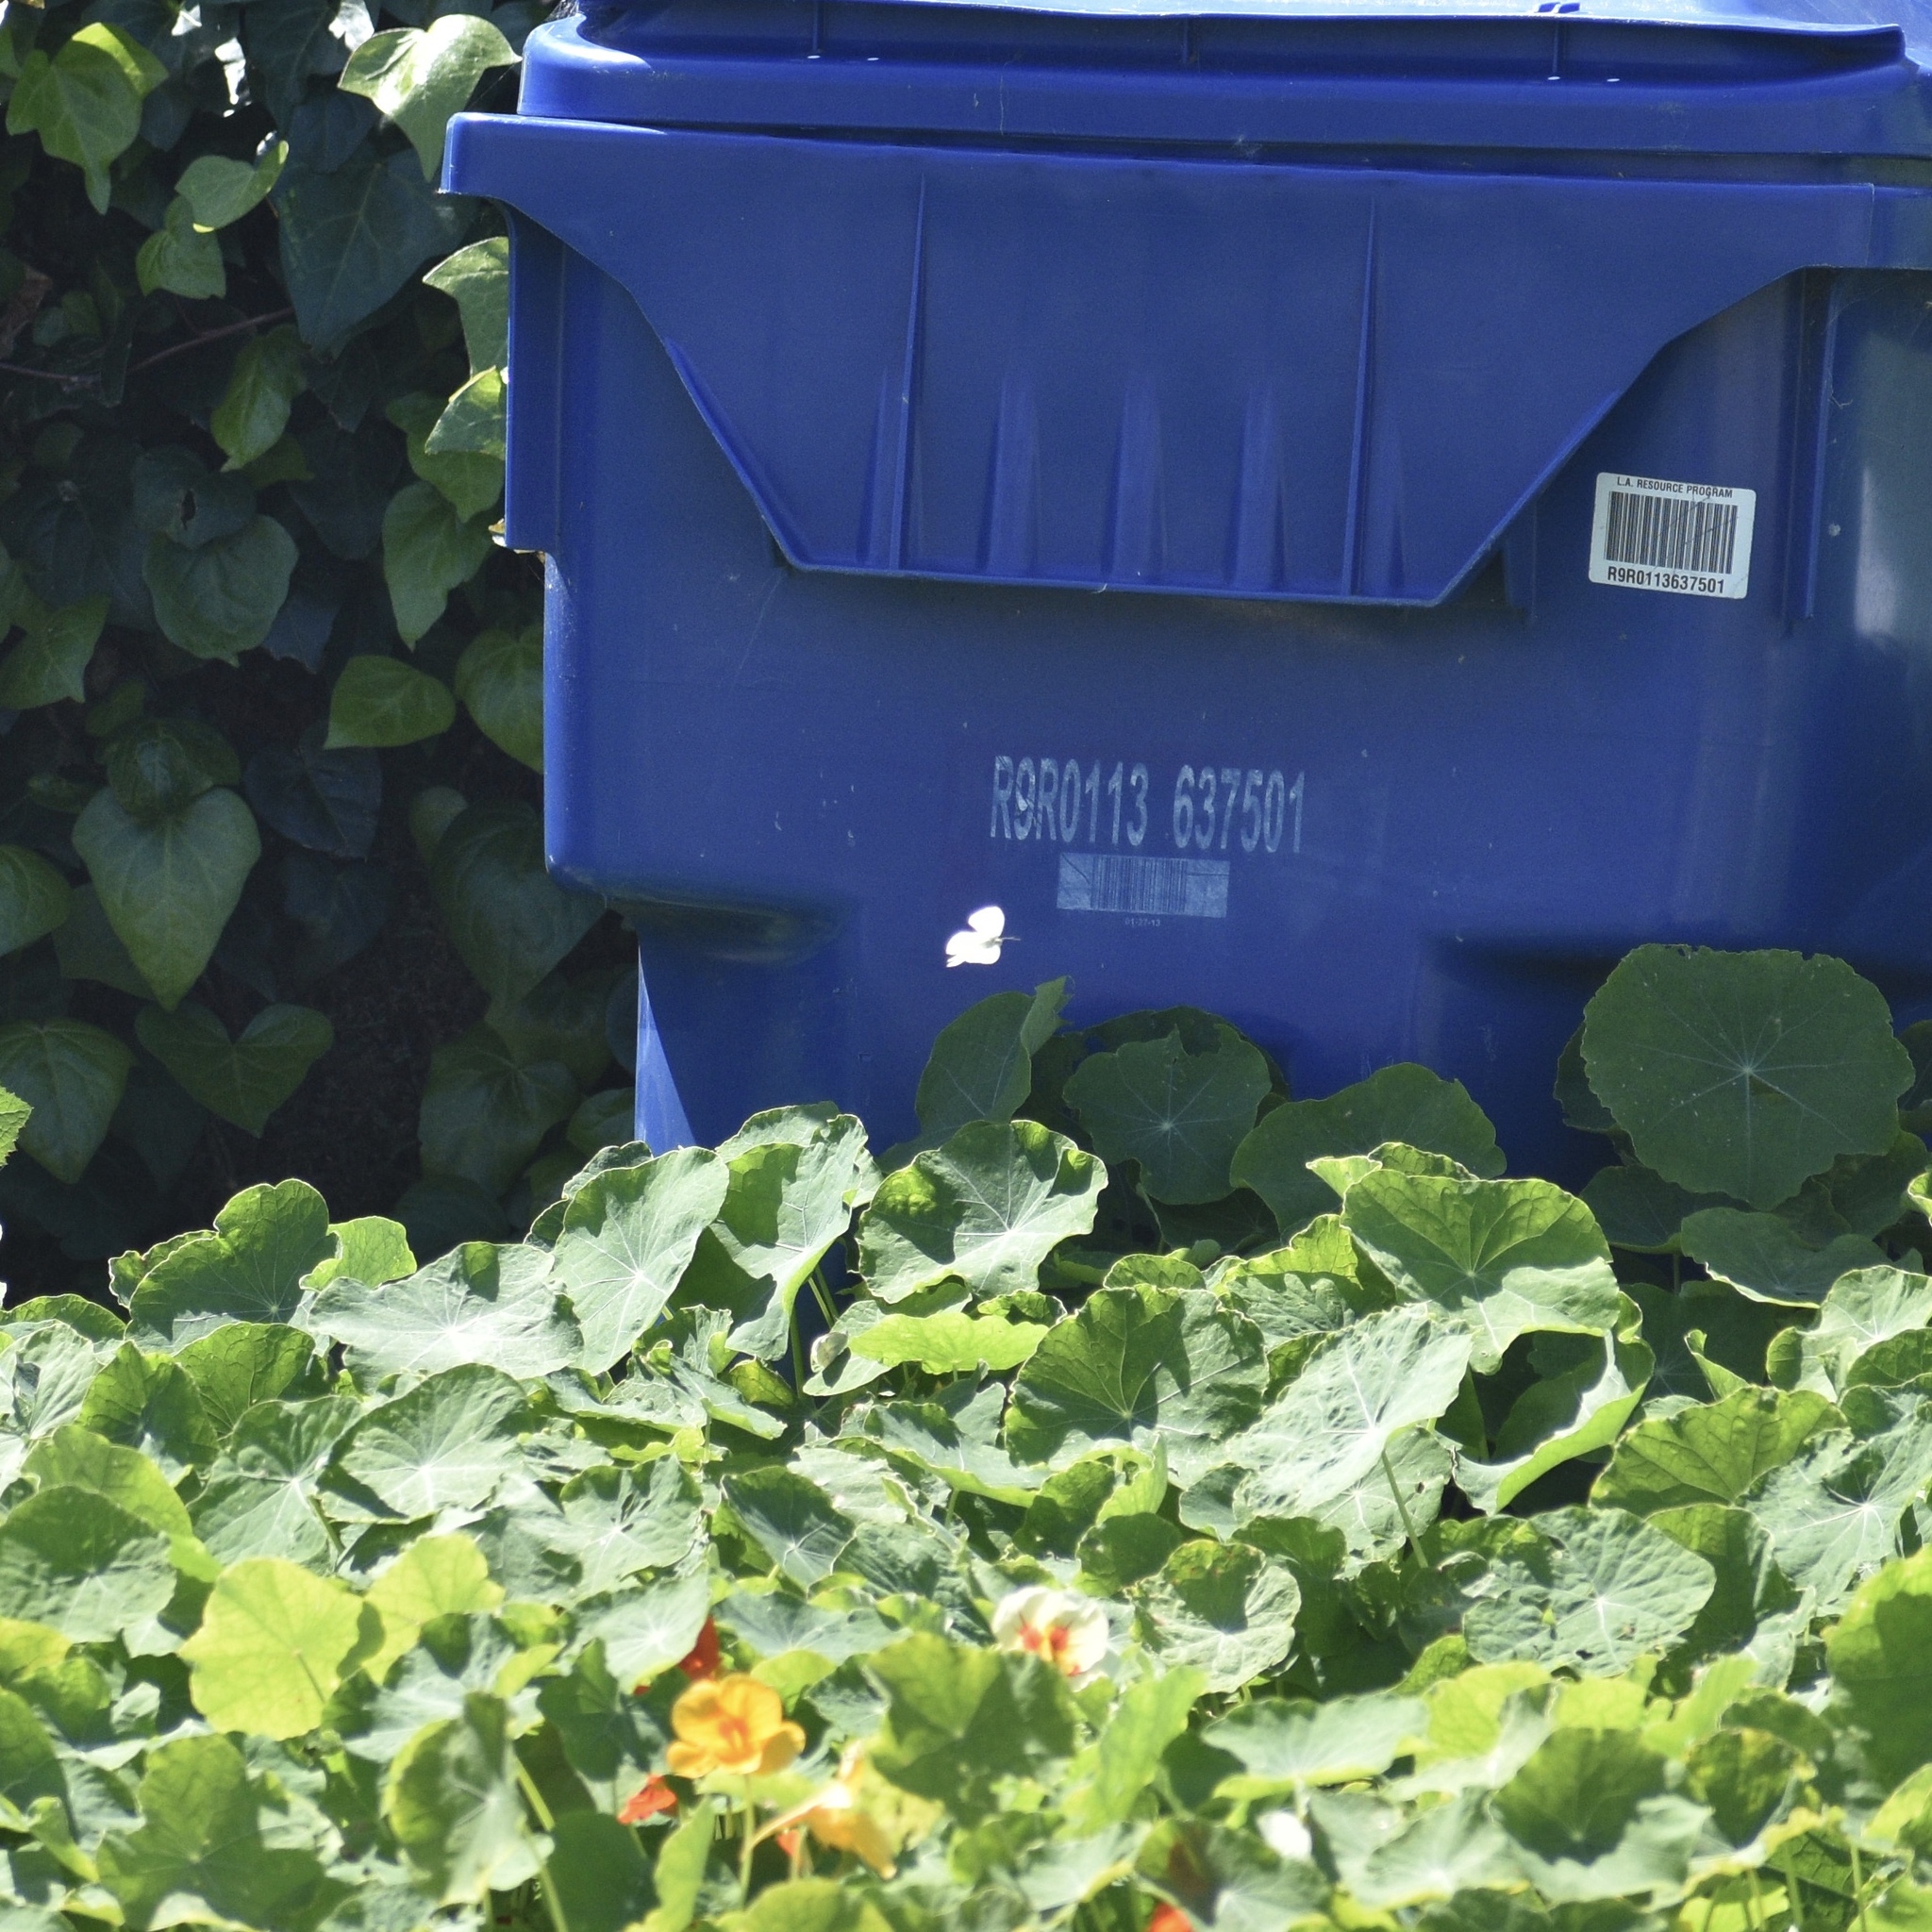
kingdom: Animalia
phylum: Arthropoda
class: Insecta
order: Lepidoptera
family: Pieridae
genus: Pieris
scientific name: Pieris rapae
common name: Small white
